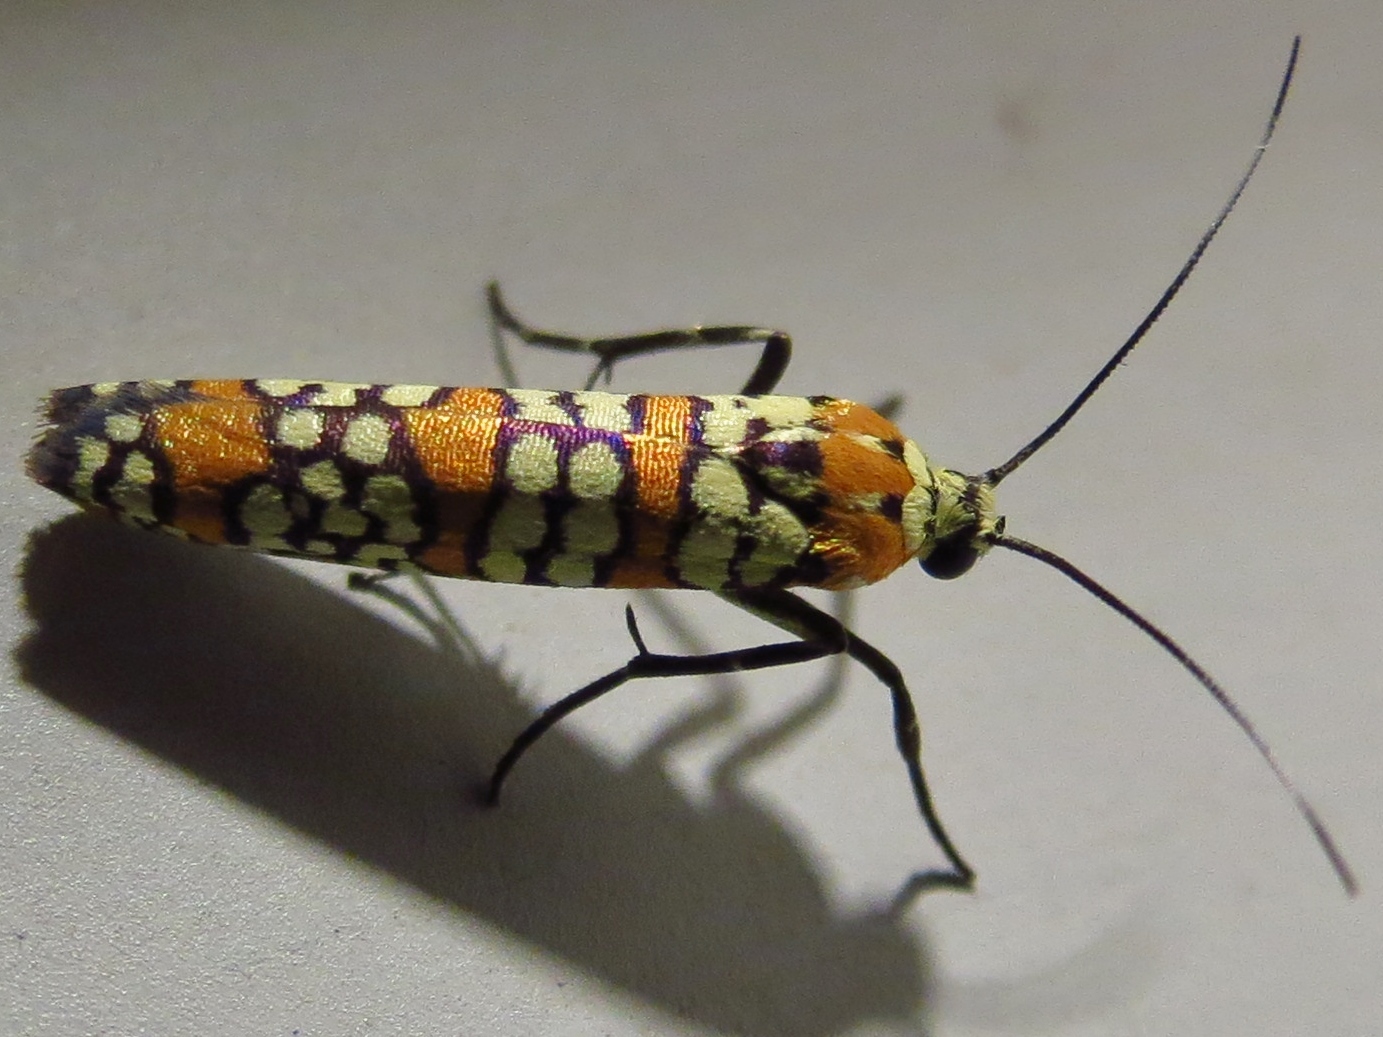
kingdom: Animalia
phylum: Arthropoda
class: Insecta
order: Lepidoptera
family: Attevidae
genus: Atteva
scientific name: Atteva punctella
